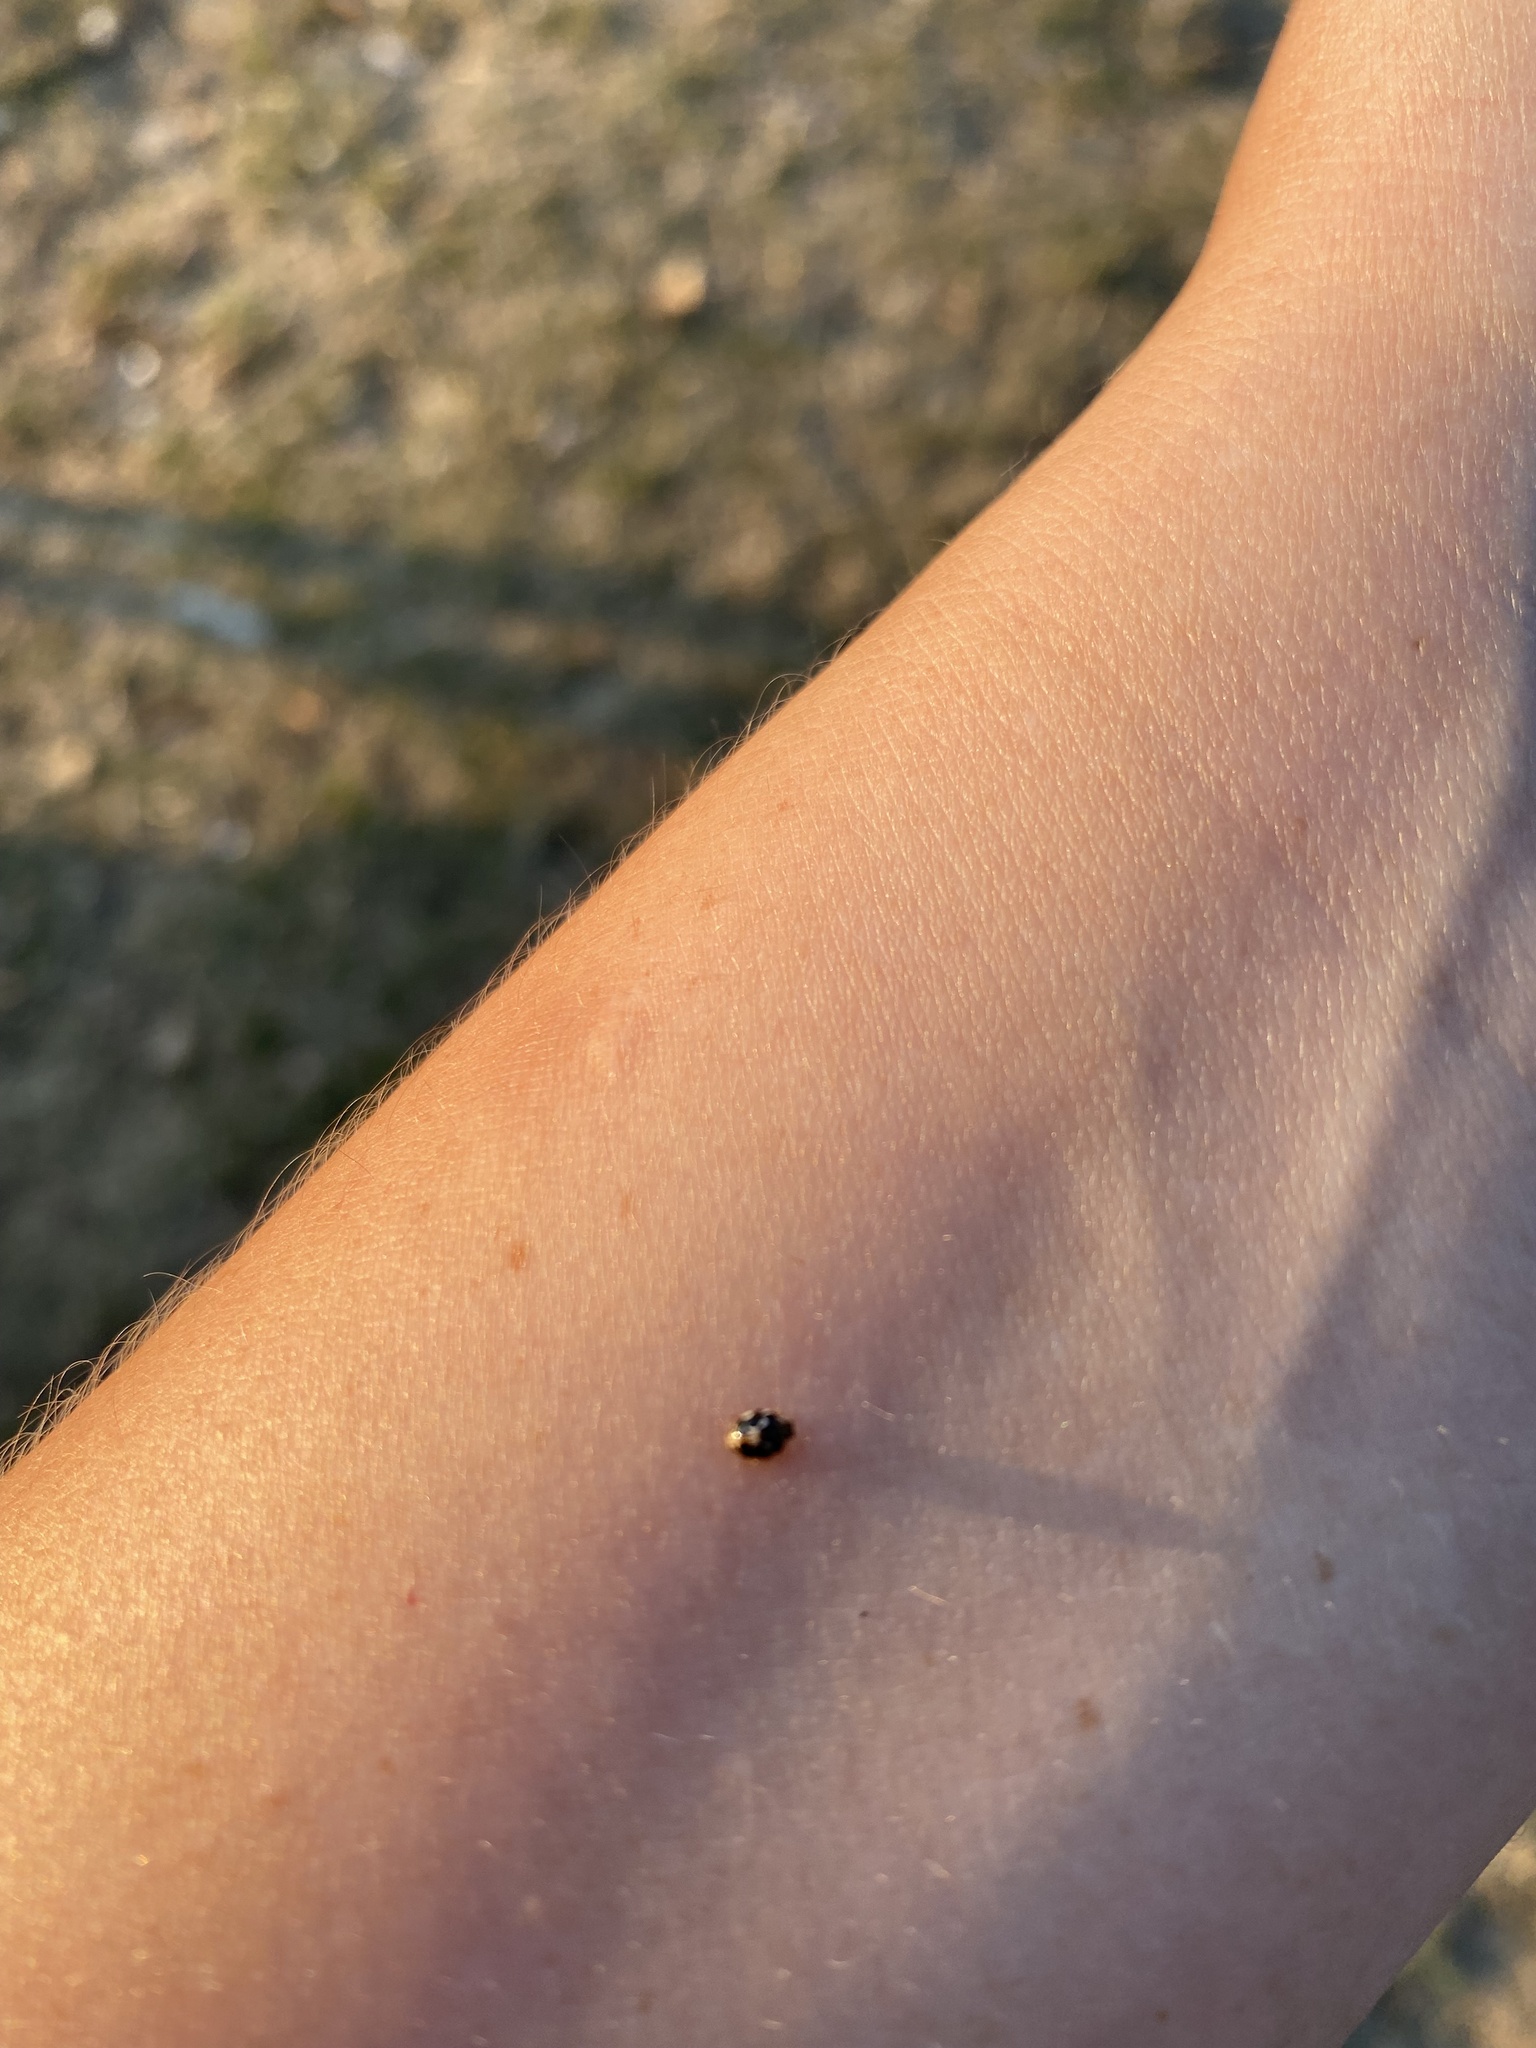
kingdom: Animalia
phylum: Arthropoda
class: Insecta
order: Coleoptera
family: Coccinellidae
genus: Psyllobora
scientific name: Psyllobora vigintimaculata
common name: Ladybird beetle
